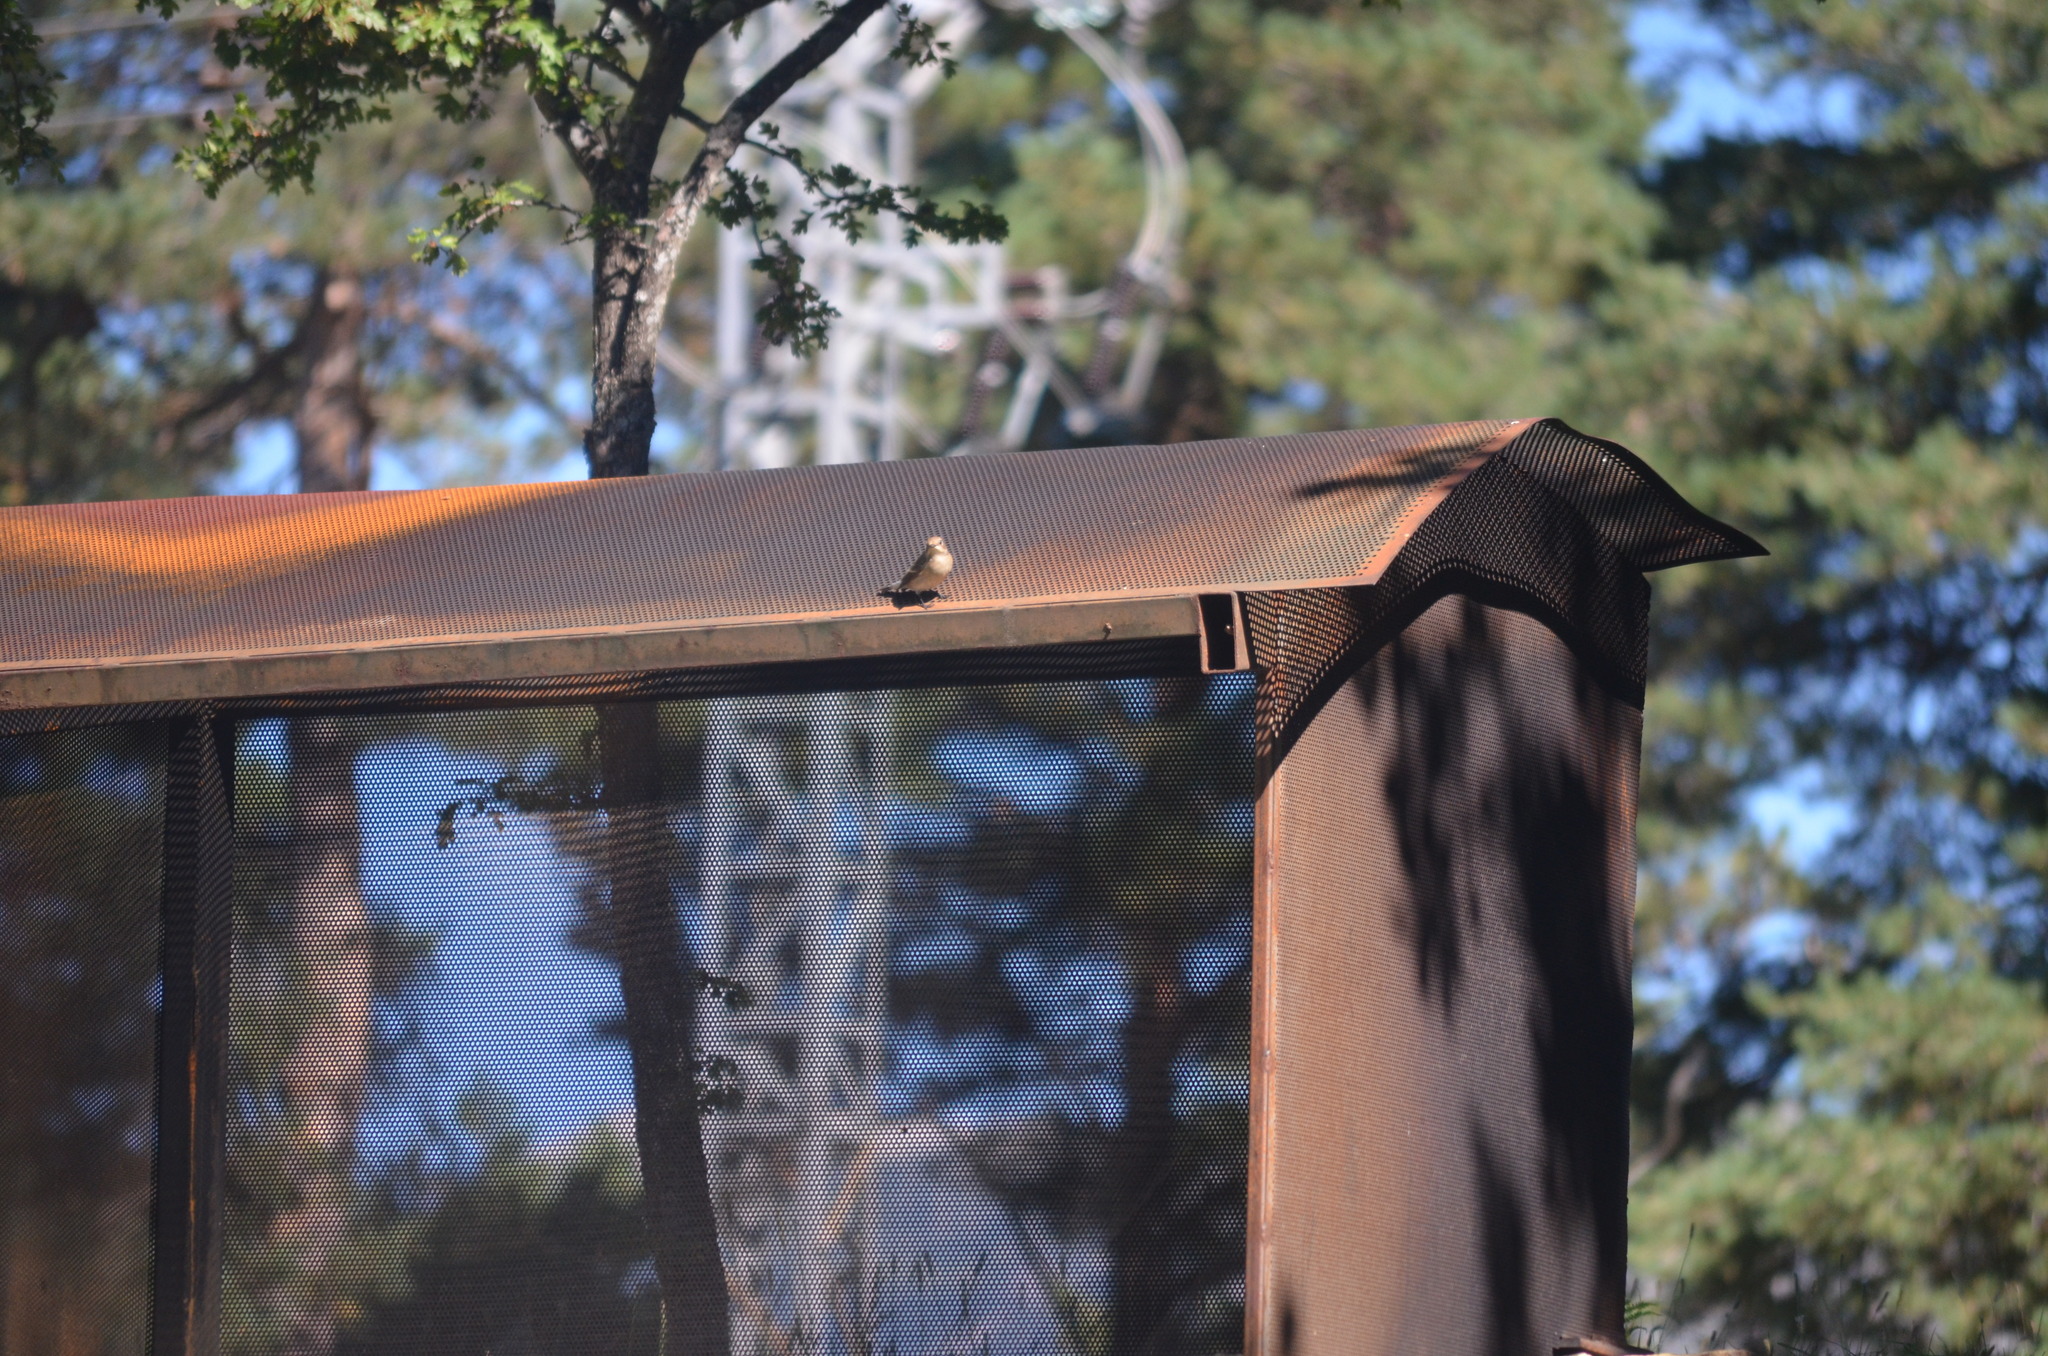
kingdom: Animalia
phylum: Chordata
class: Aves
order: Passeriformes
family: Muscicapidae
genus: Ficedula
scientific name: Ficedula hypoleuca
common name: European pied flycatcher
